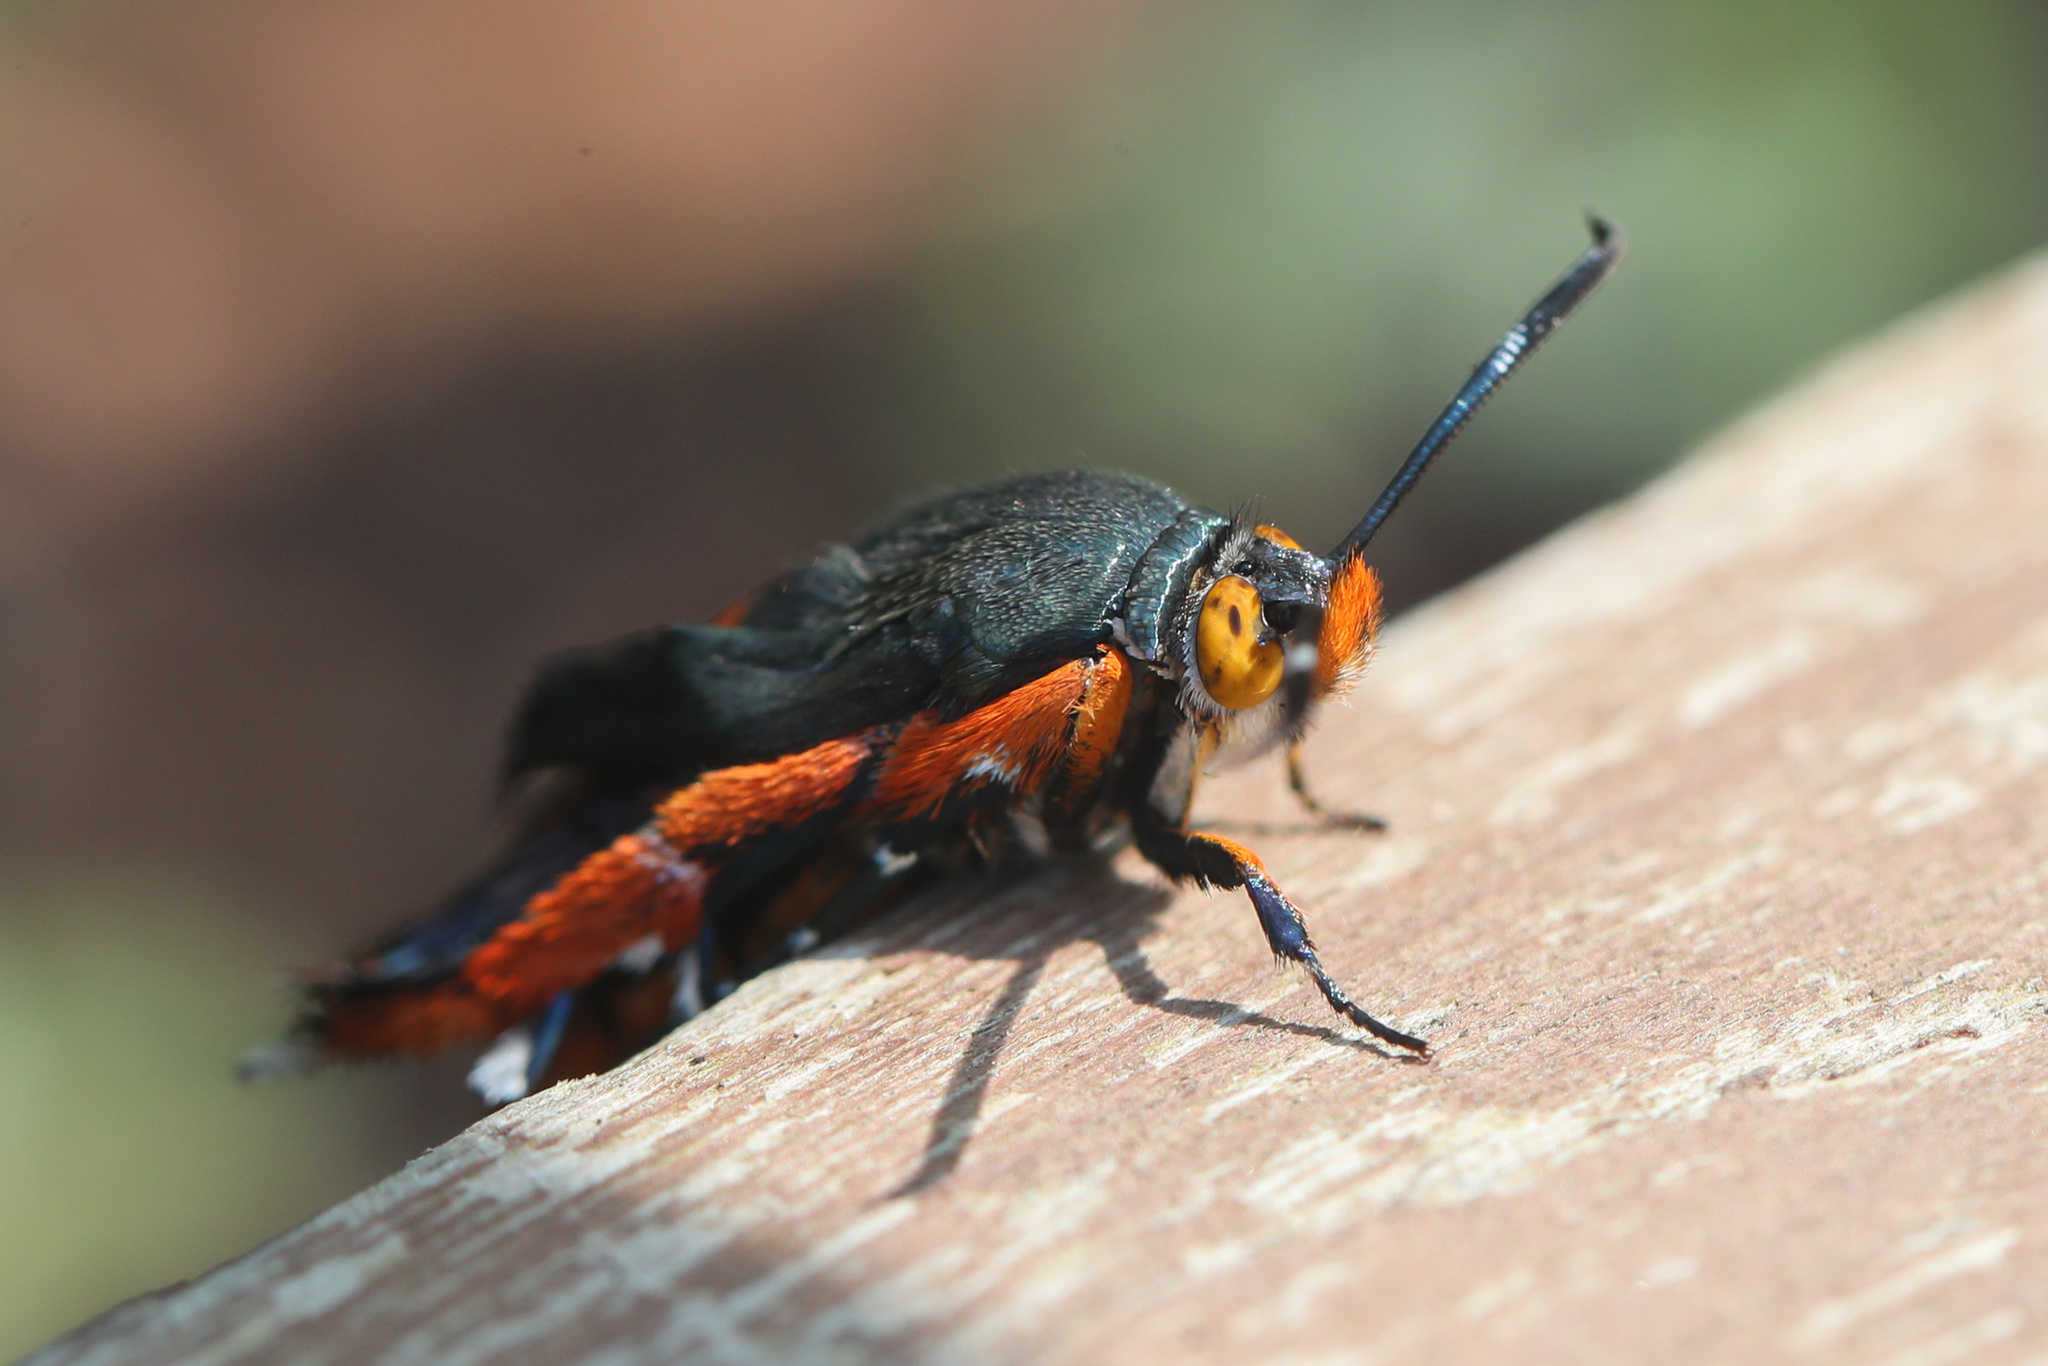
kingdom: Animalia
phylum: Arthropoda
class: Insecta
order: Lepidoptera
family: Sesiidae
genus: Eichlinia
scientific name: Eichlinia cucurbitae
